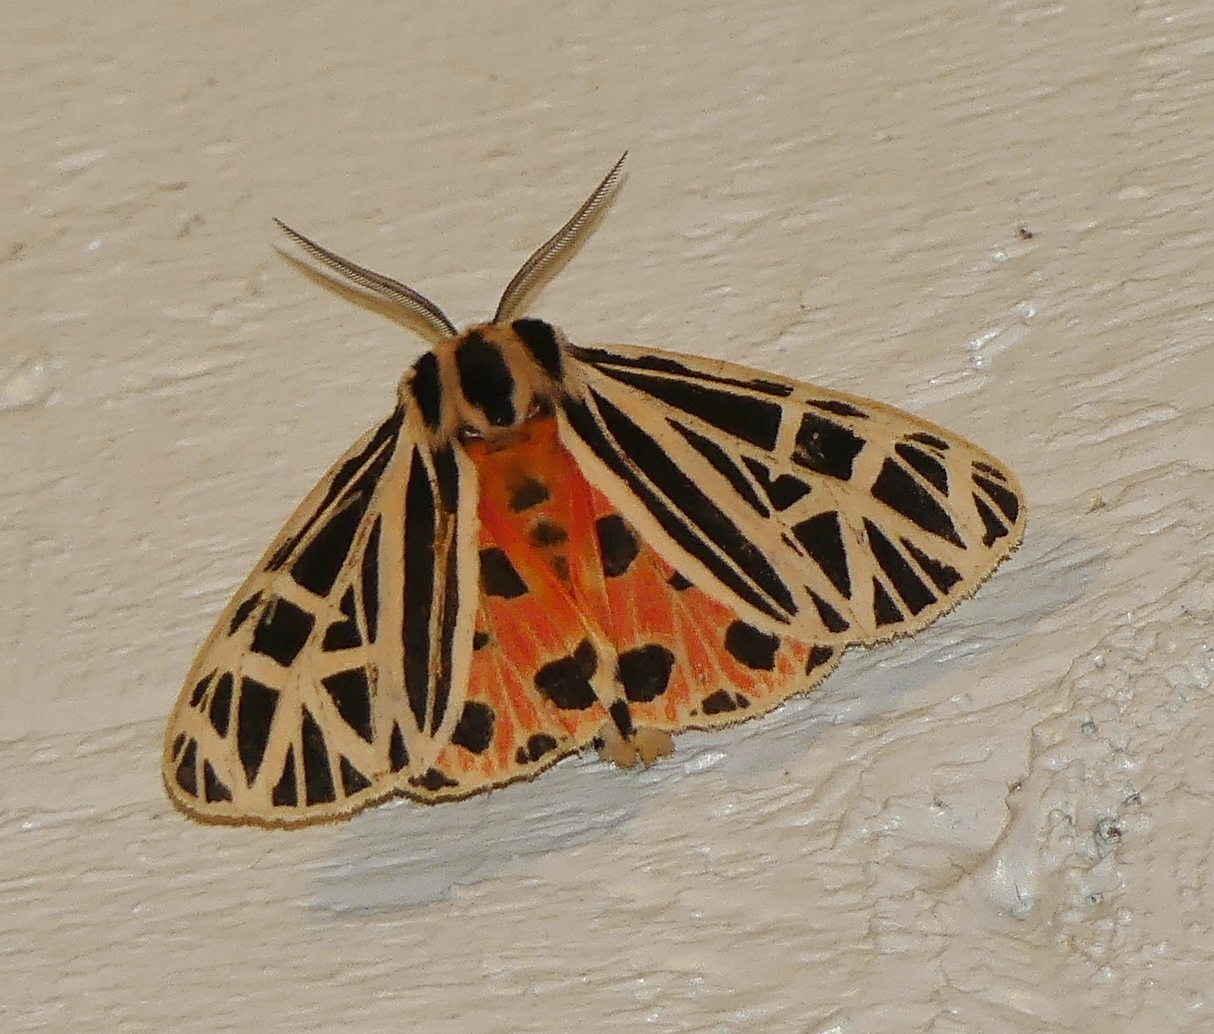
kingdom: Animalia
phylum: Arthropoda
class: Insecta
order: Lepidoptera
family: Erebidae
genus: Grammia
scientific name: Grammia virgo
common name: Virgin tiger moth
